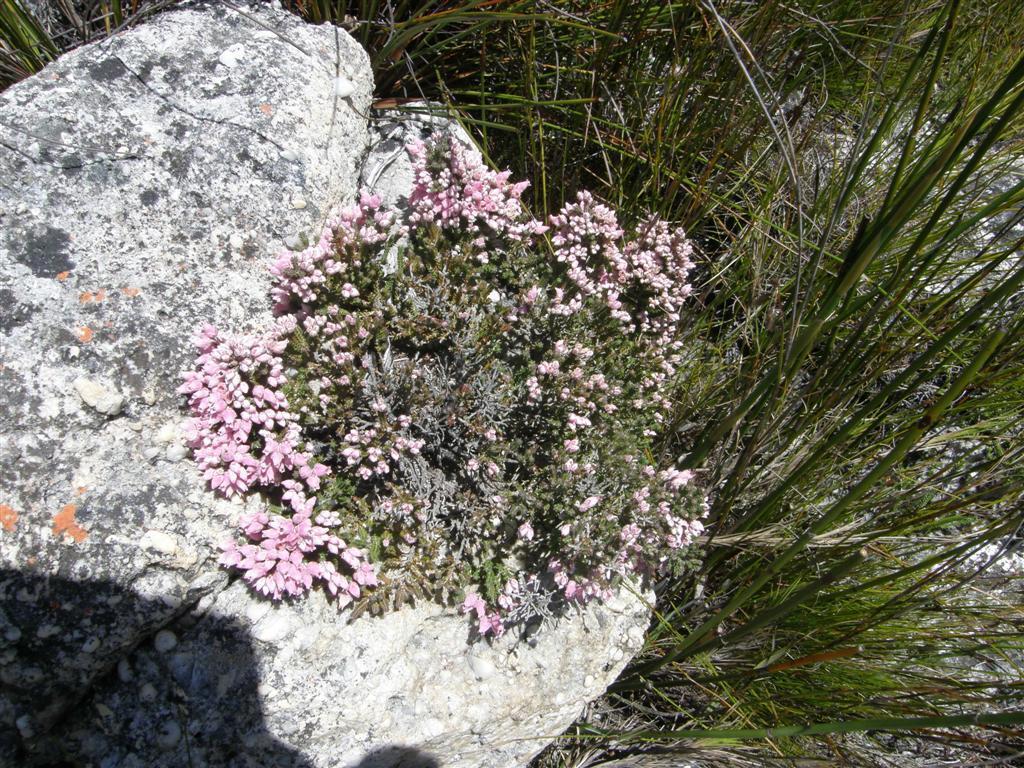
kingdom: Plantae
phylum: Tracheophyta
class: Magnoliopsida
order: Ericales
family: Ericaceae
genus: Erica
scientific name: Erica modesta
